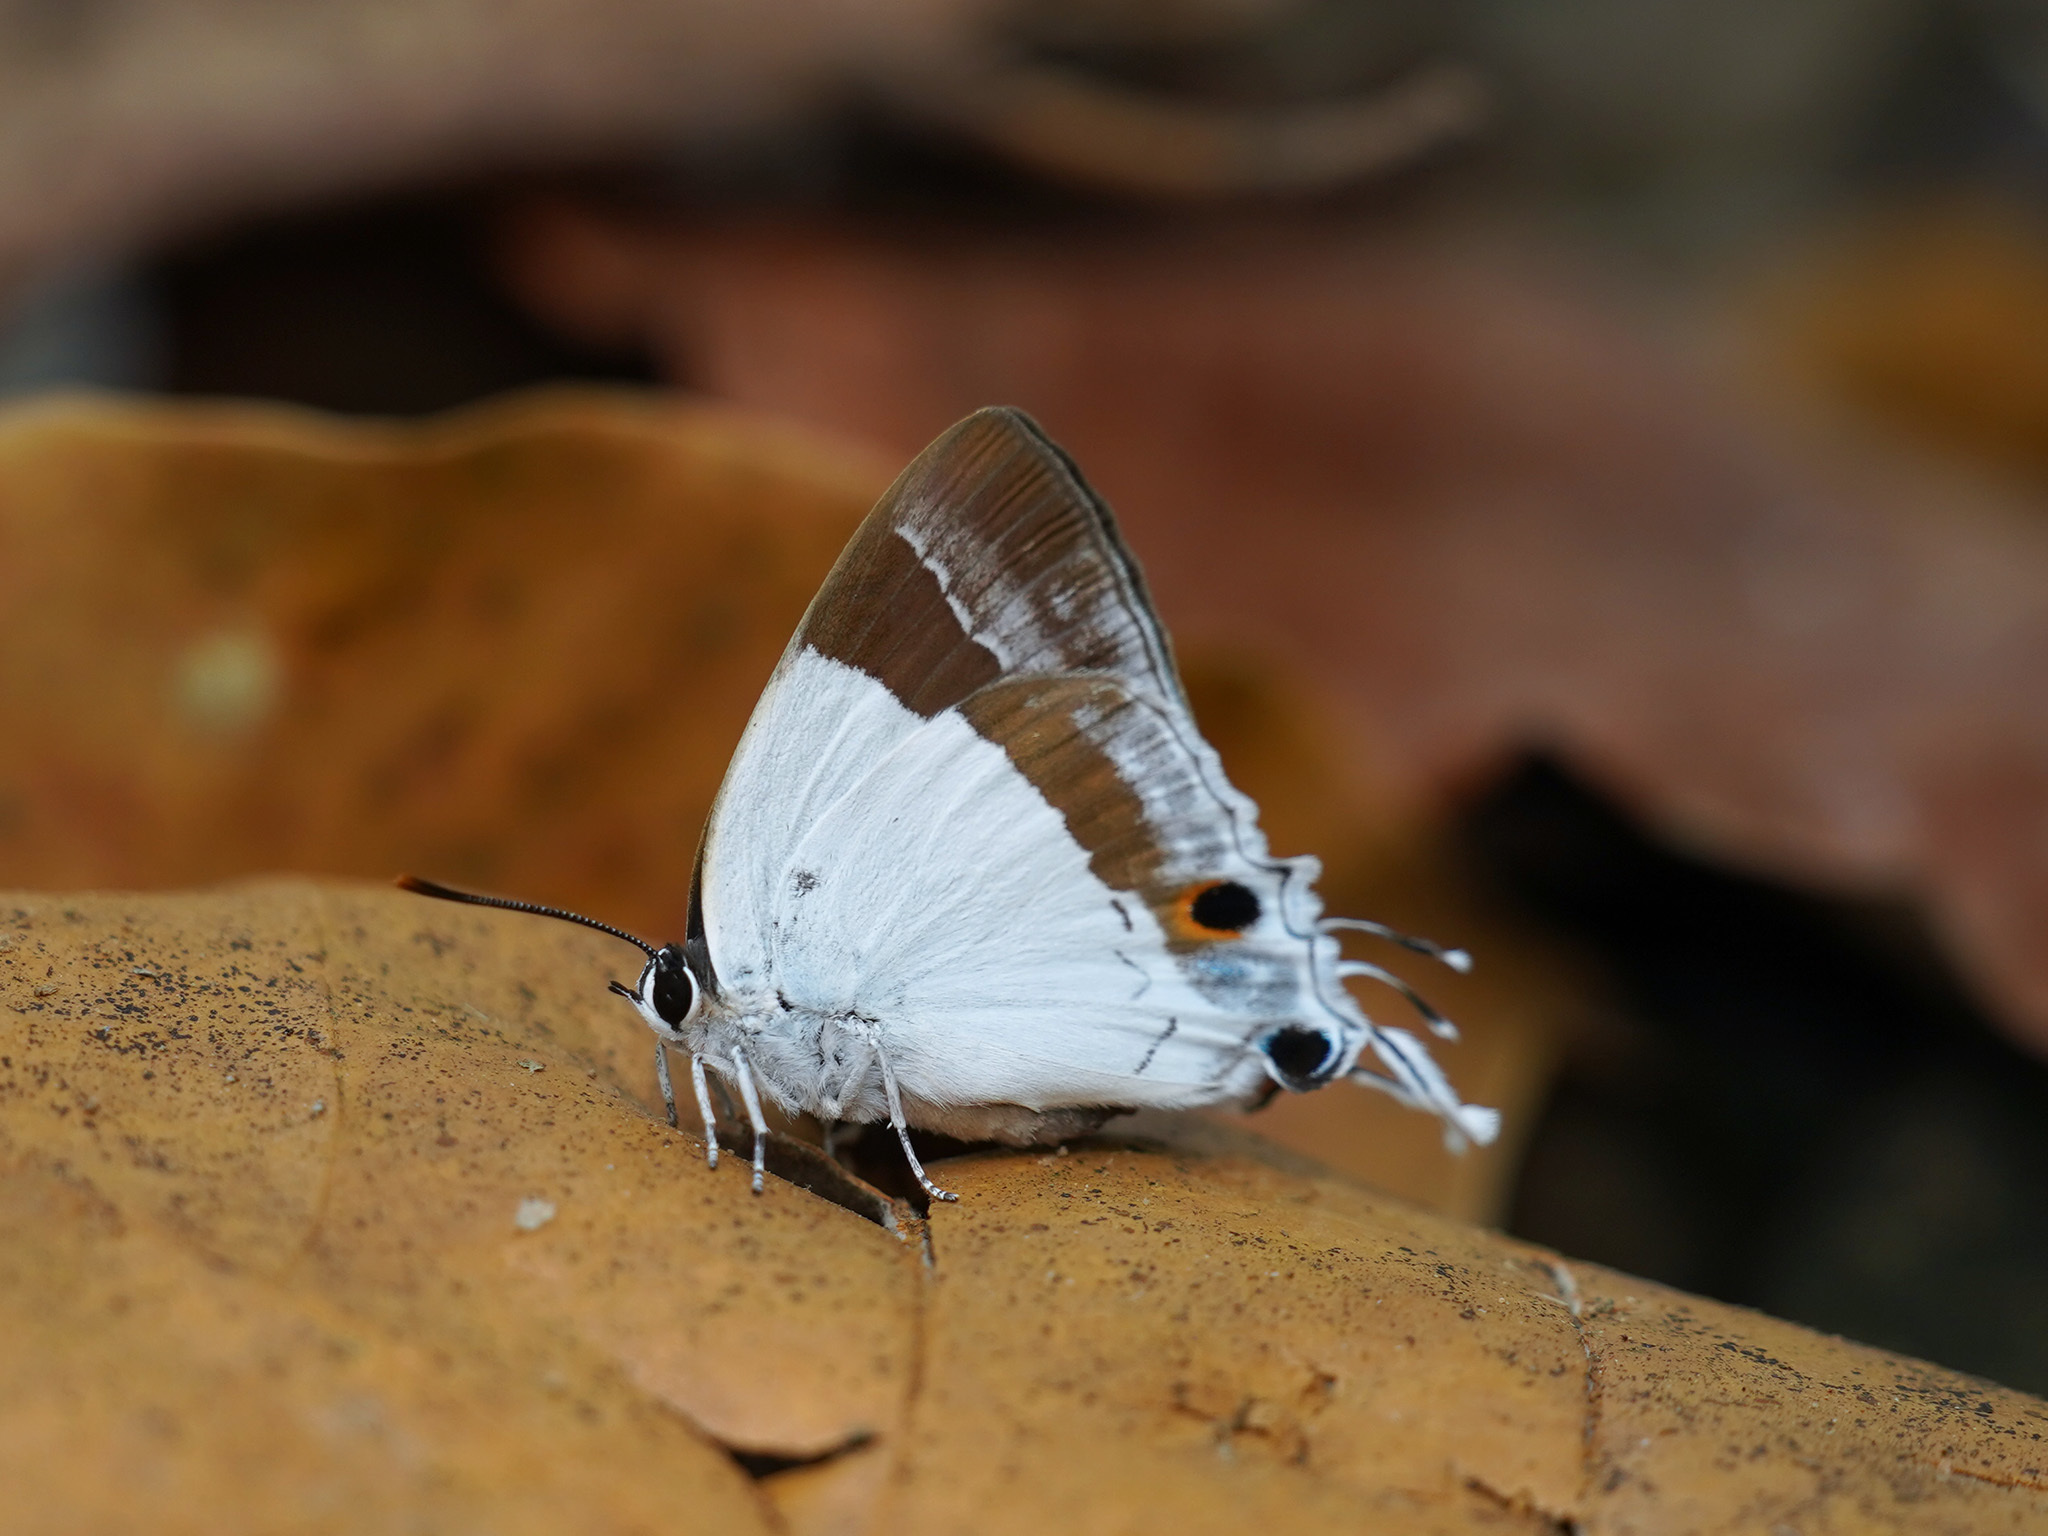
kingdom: Animalia
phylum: Arthropoda
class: Insecta
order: Lepidoptera
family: Hesperiidae
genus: Rachana
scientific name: Rachana jalindra
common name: Banded royal
